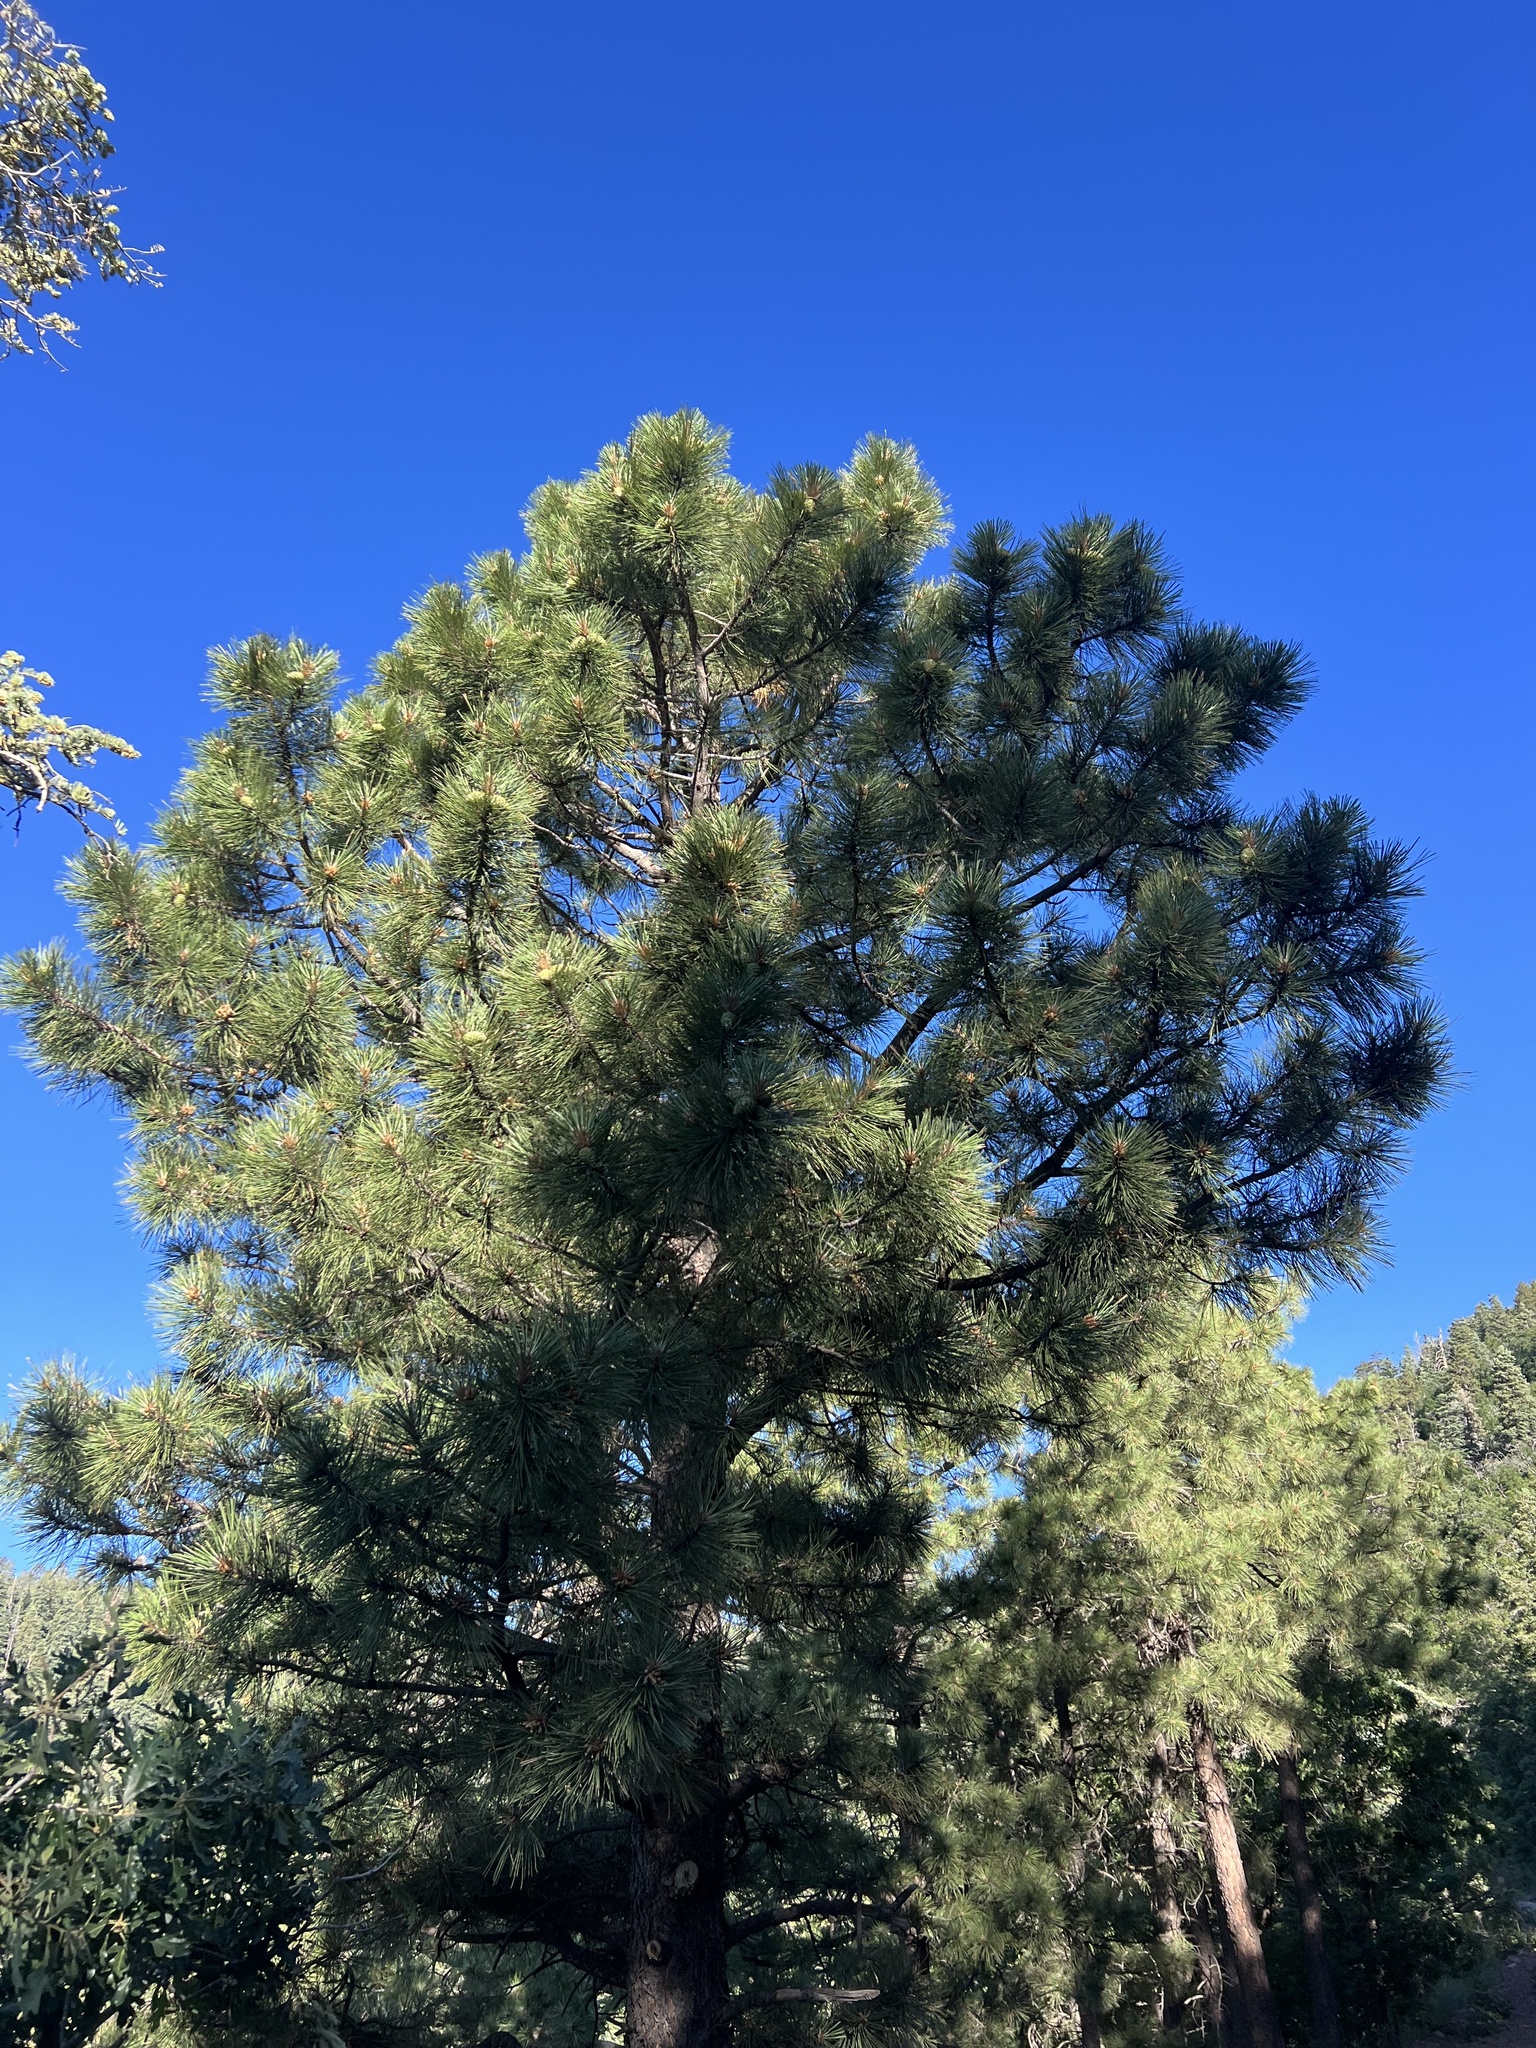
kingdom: Plantae
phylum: Tracheophyta
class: Pinopsida
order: Pinales
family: Pinaceae
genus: Pinus
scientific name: Pinus ponderosa
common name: Western yellow-pine
